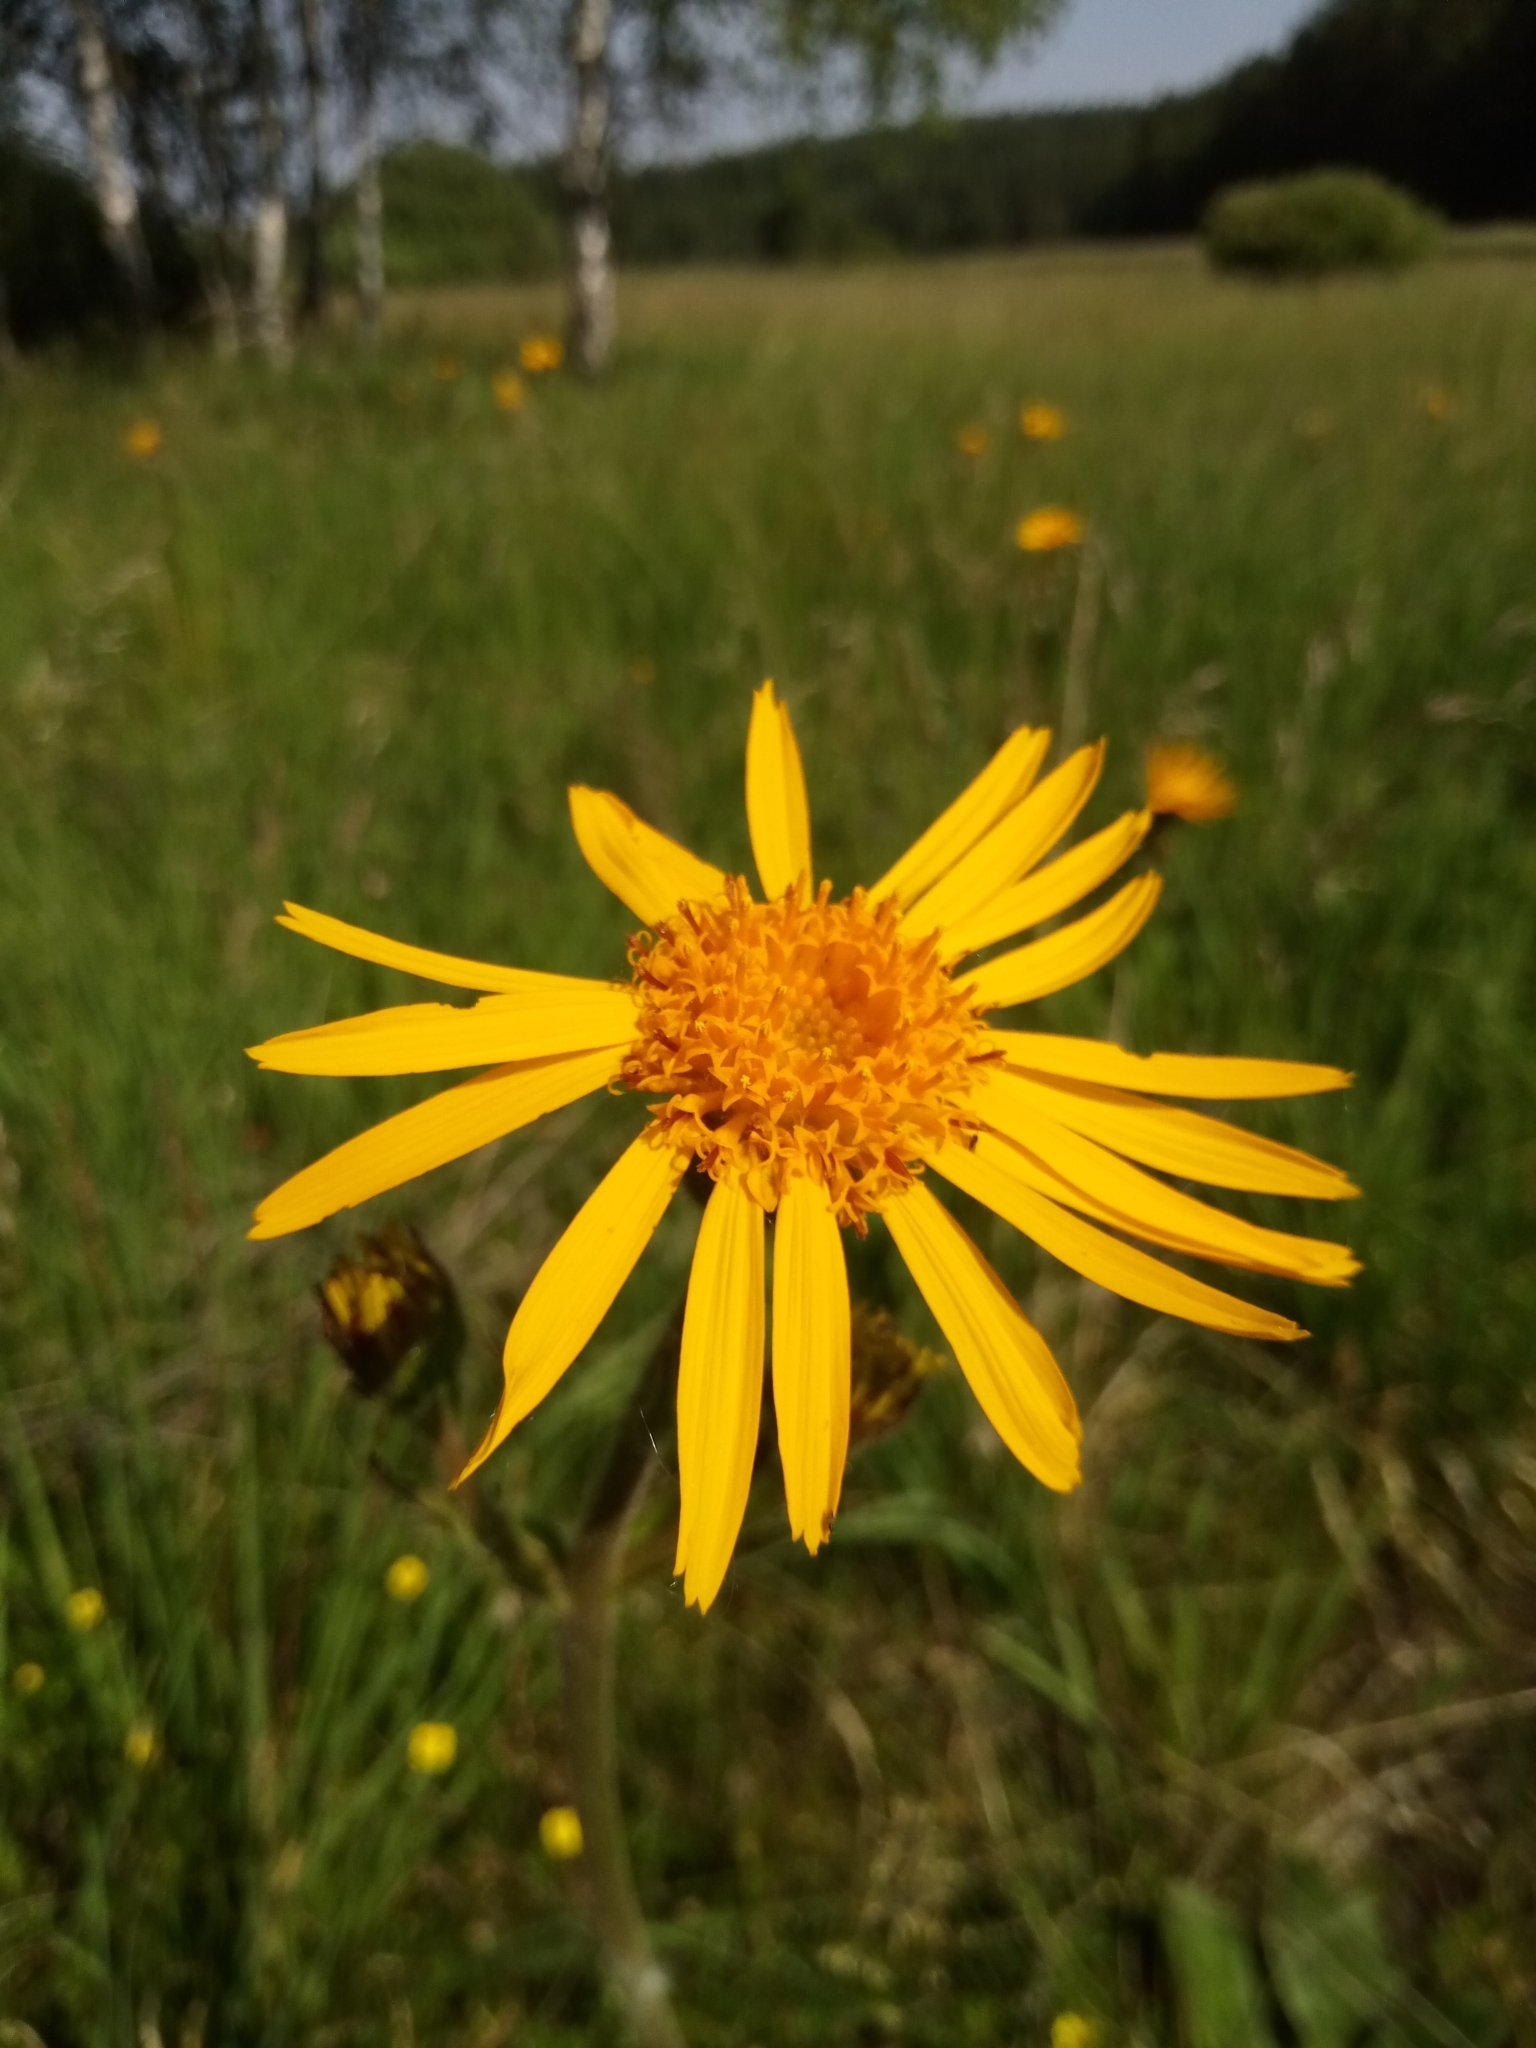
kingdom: Plantae
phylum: Tracheophyta
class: Magnoliopsida
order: Asterales
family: Asteraceae
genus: Arnica
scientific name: Arnica montana
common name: Leopard's bane
